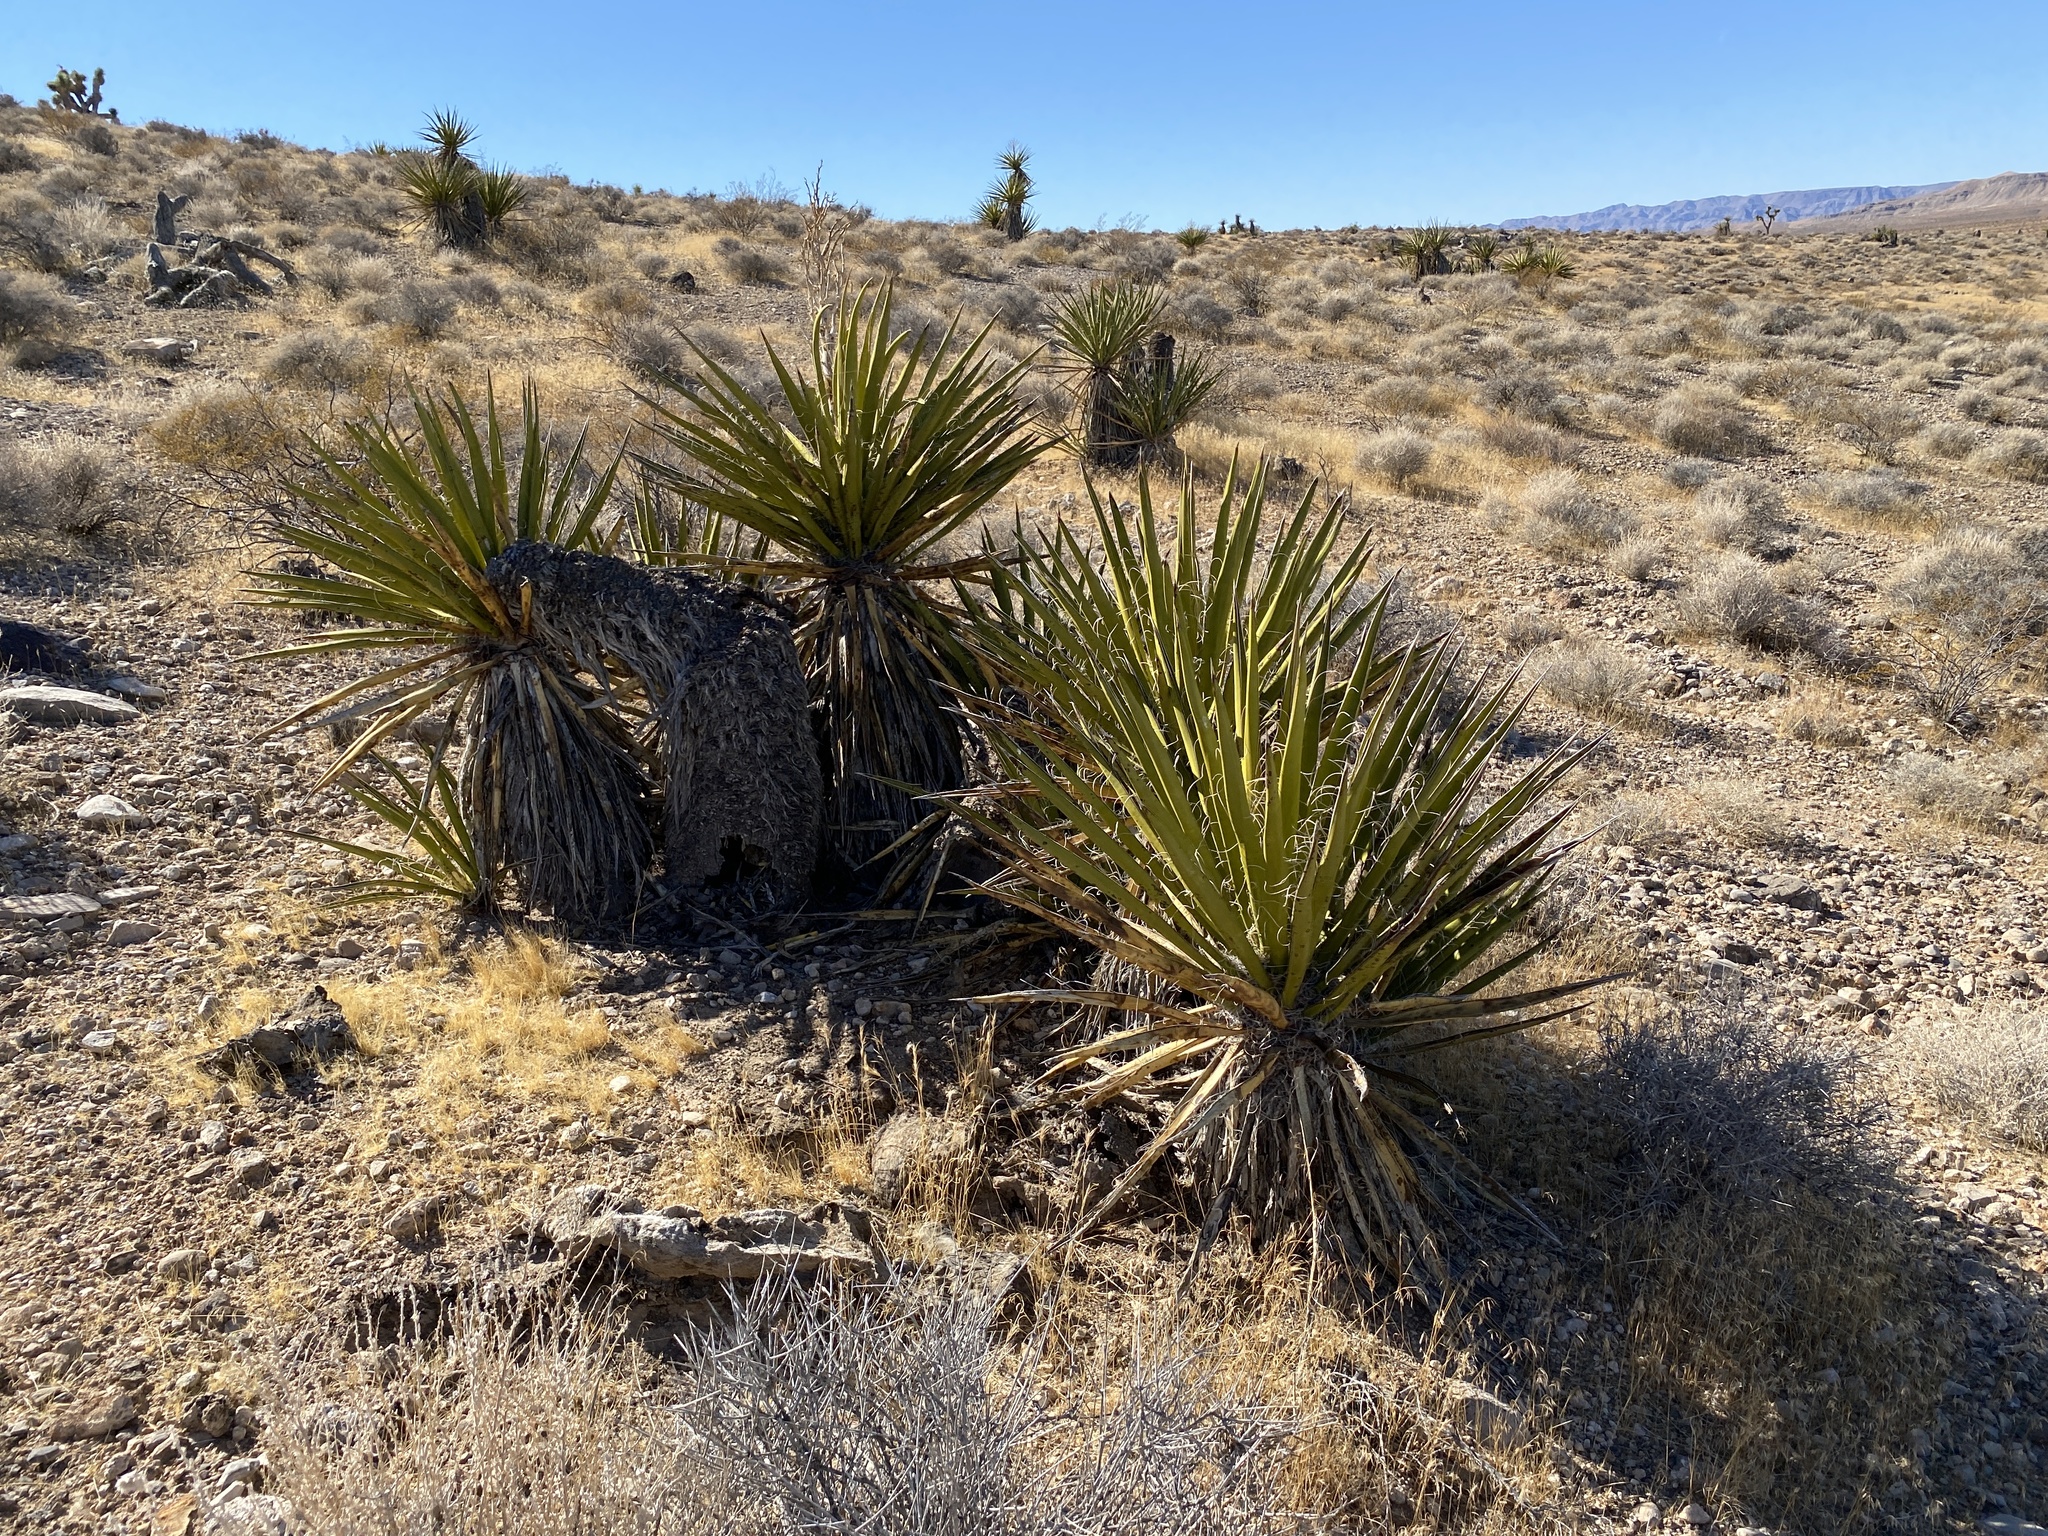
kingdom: Plantae
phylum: Tracheophyta
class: Liliopsida
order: Asparagales
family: Asparagaceae
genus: Yucca
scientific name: Yucca schidigera
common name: Mojave yucca
